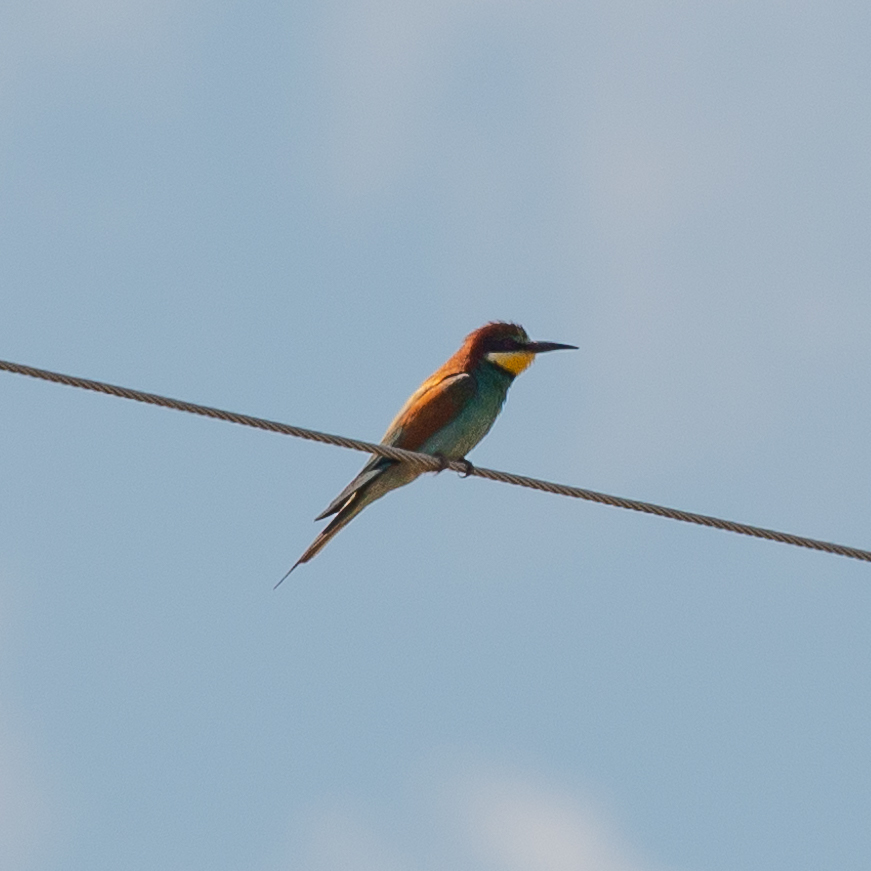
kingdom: Animalia
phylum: Chordata
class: Aves
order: Coraciiformes
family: Meropidae
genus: Merops
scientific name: Merops apiaster
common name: European bee-eater
